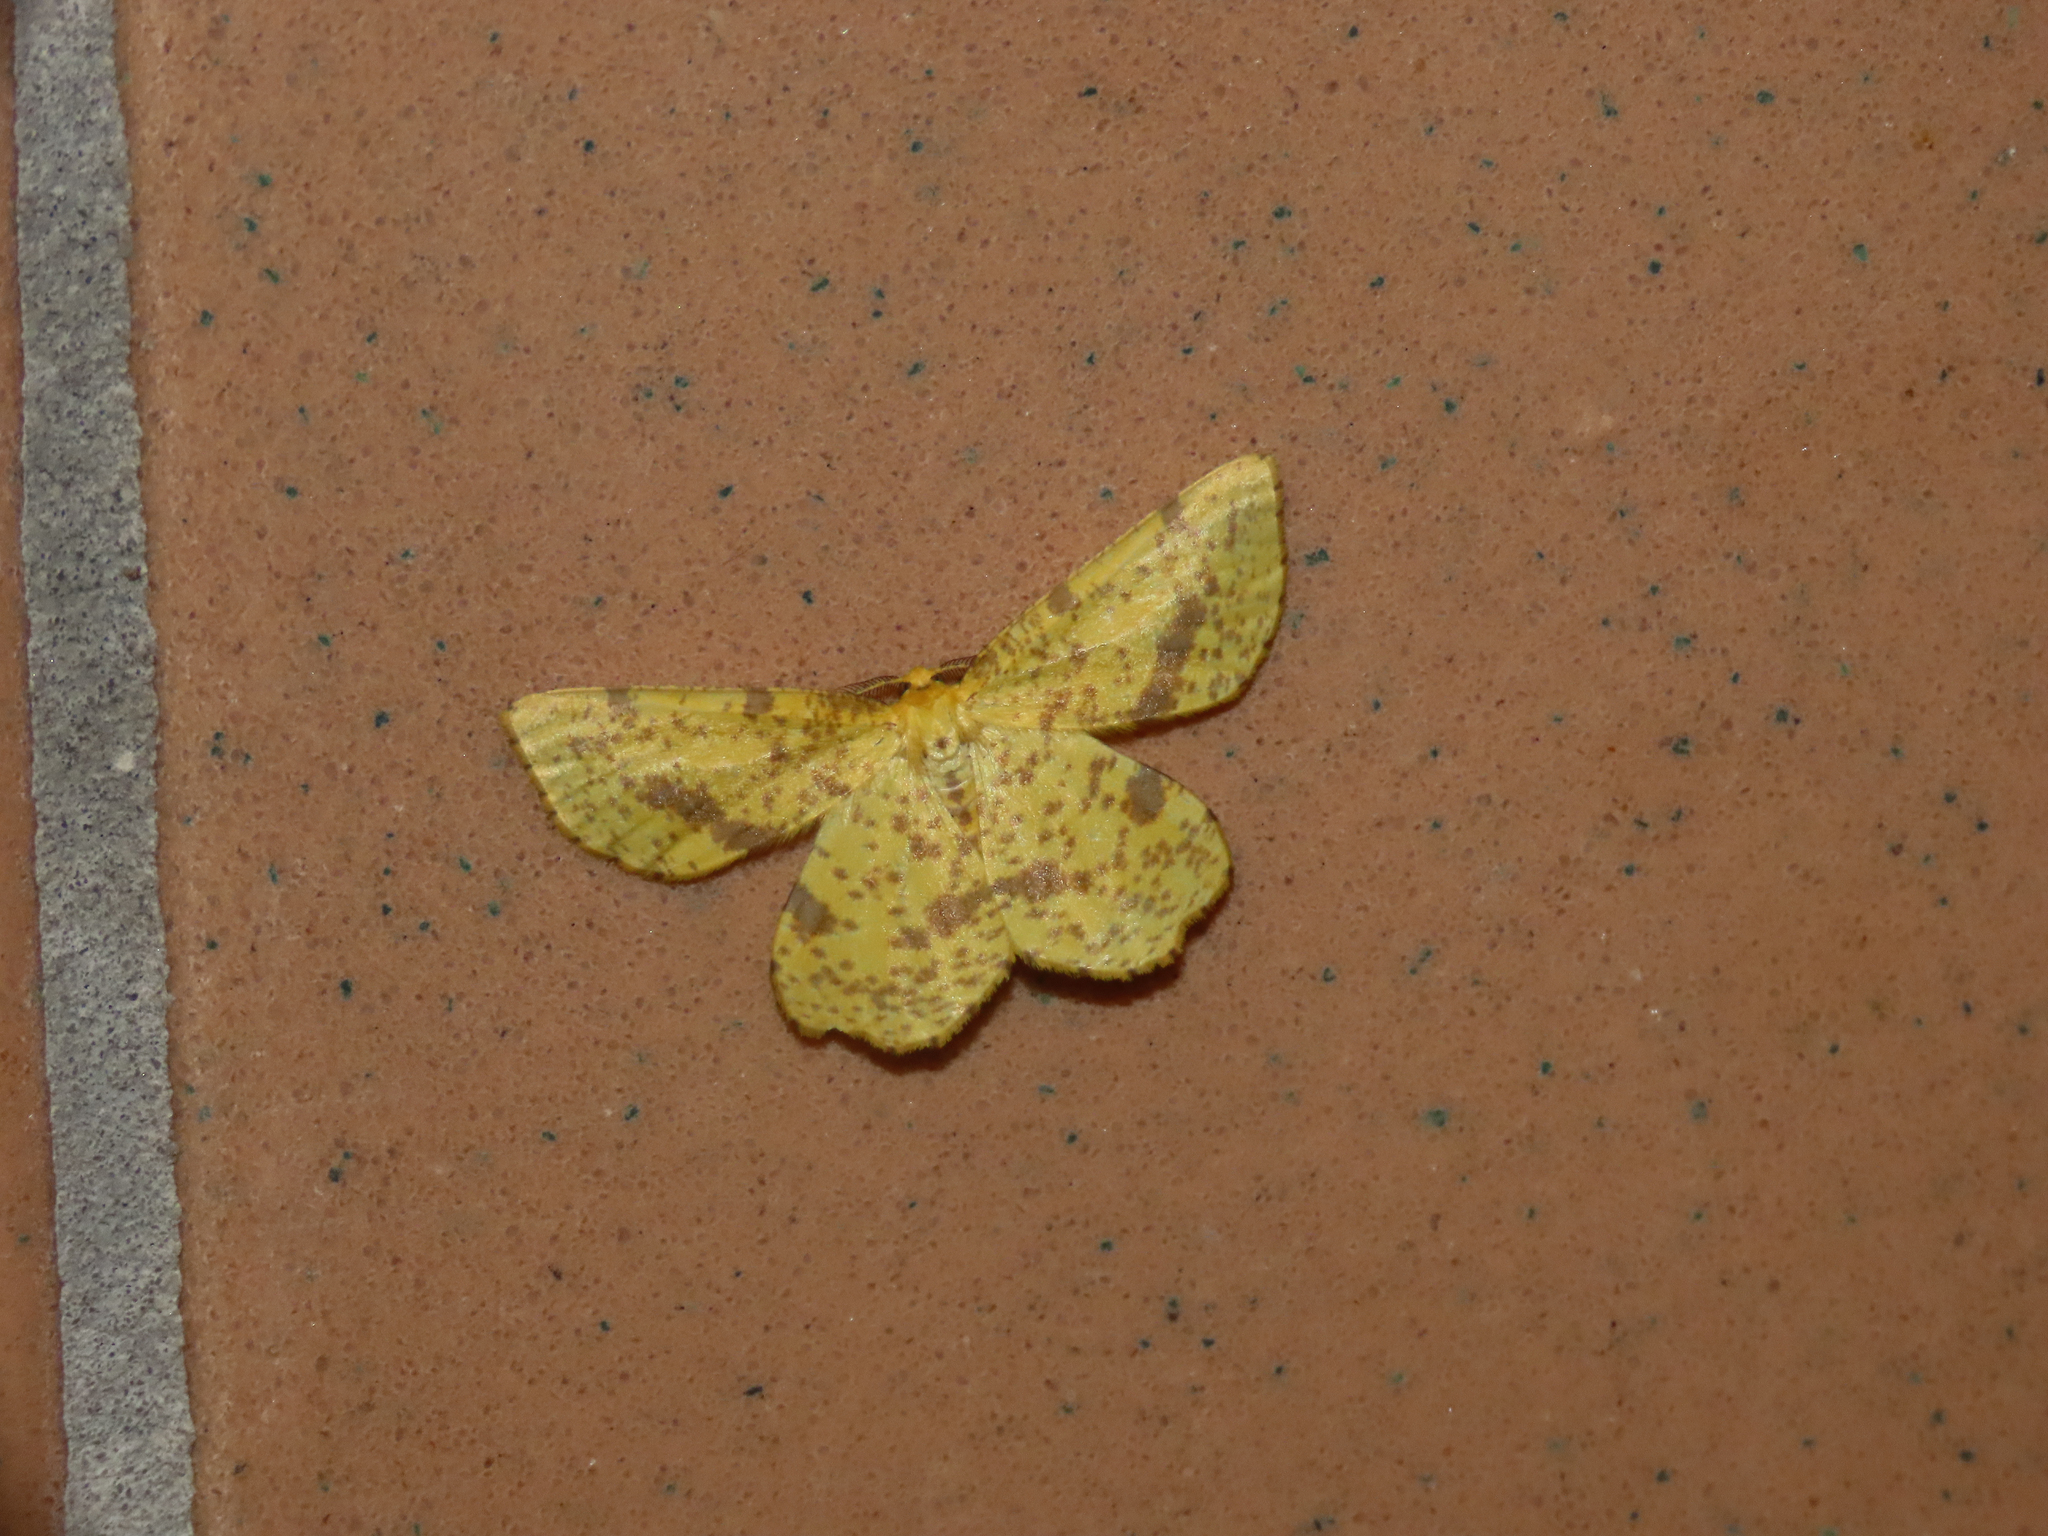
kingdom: Animalia
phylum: Arthropoda
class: Insecta
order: Lepidoptera
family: Geometridae
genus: Xanthotype
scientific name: Xanthotype
